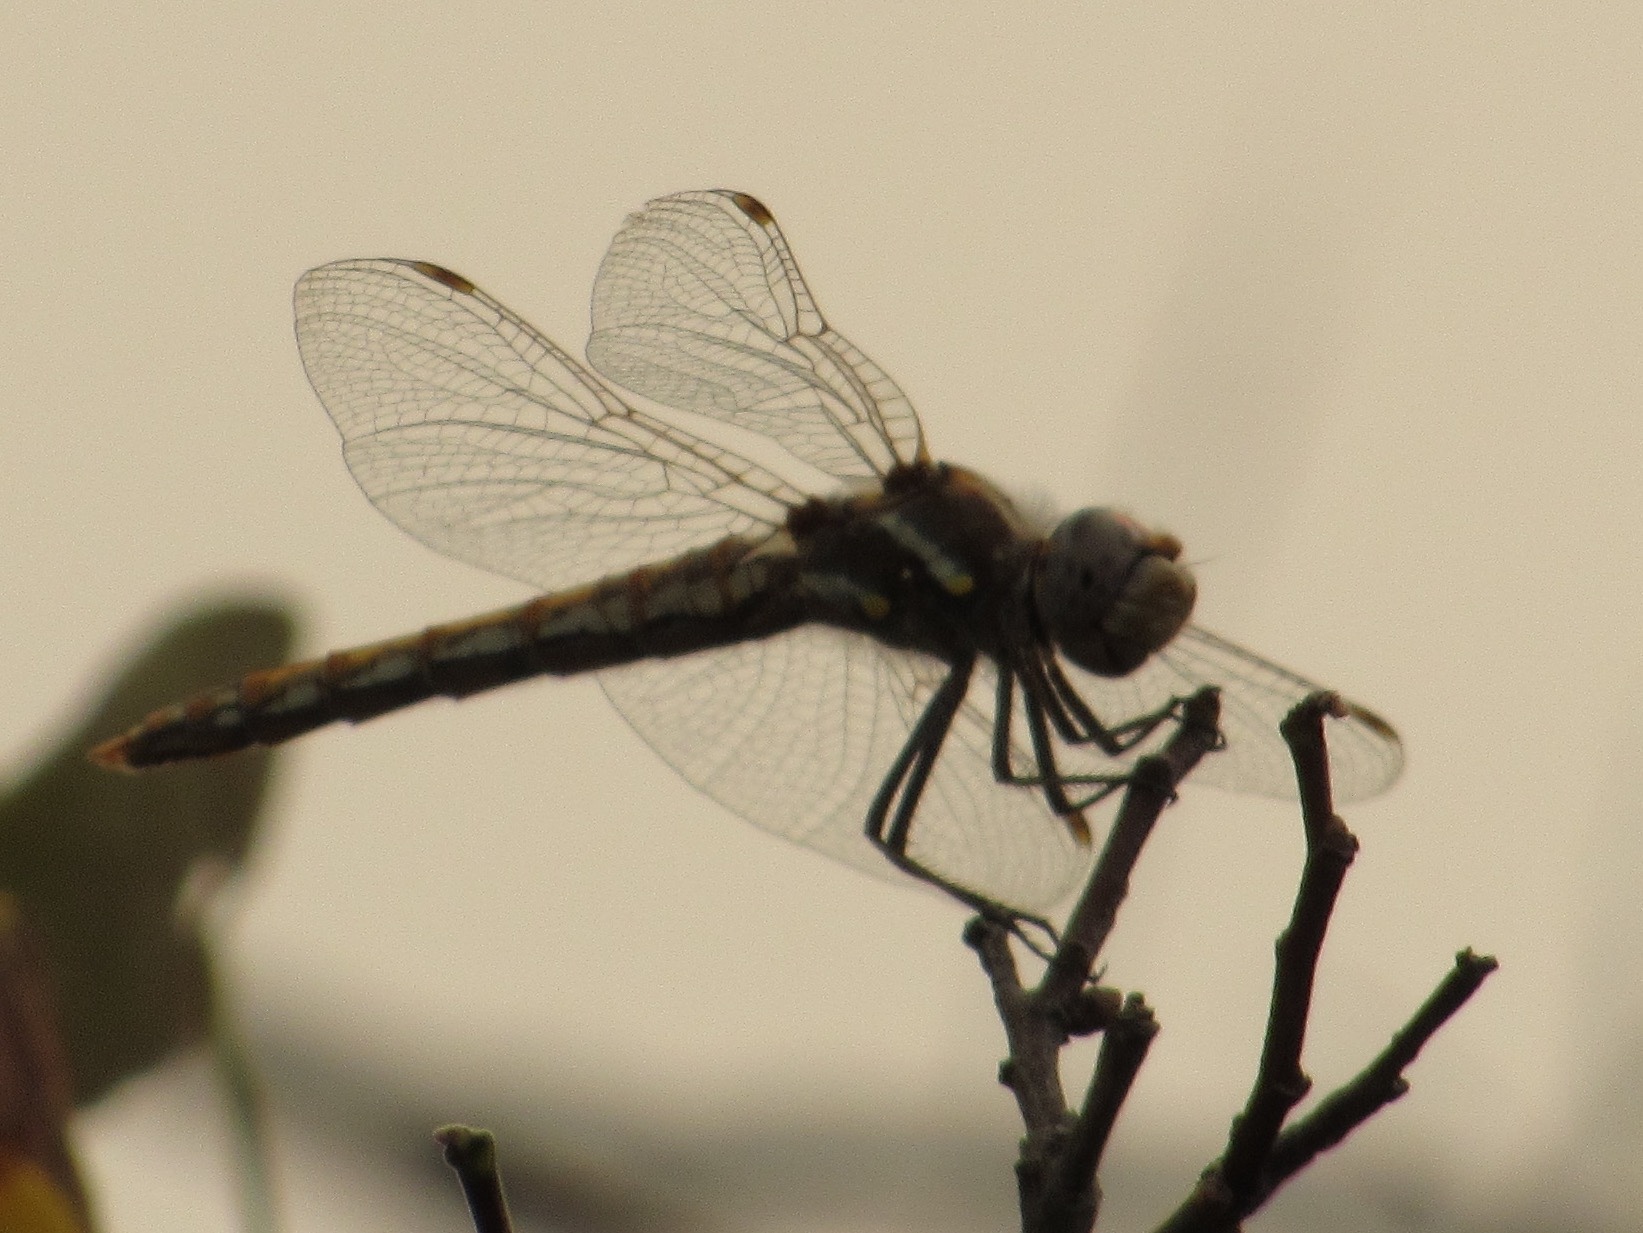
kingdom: Animalia
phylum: Arthropoda
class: Insecta
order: Odonata
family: Libellulidae
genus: Sympetrum
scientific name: Sympetrum corruptum
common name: Variegated meadowhawk
